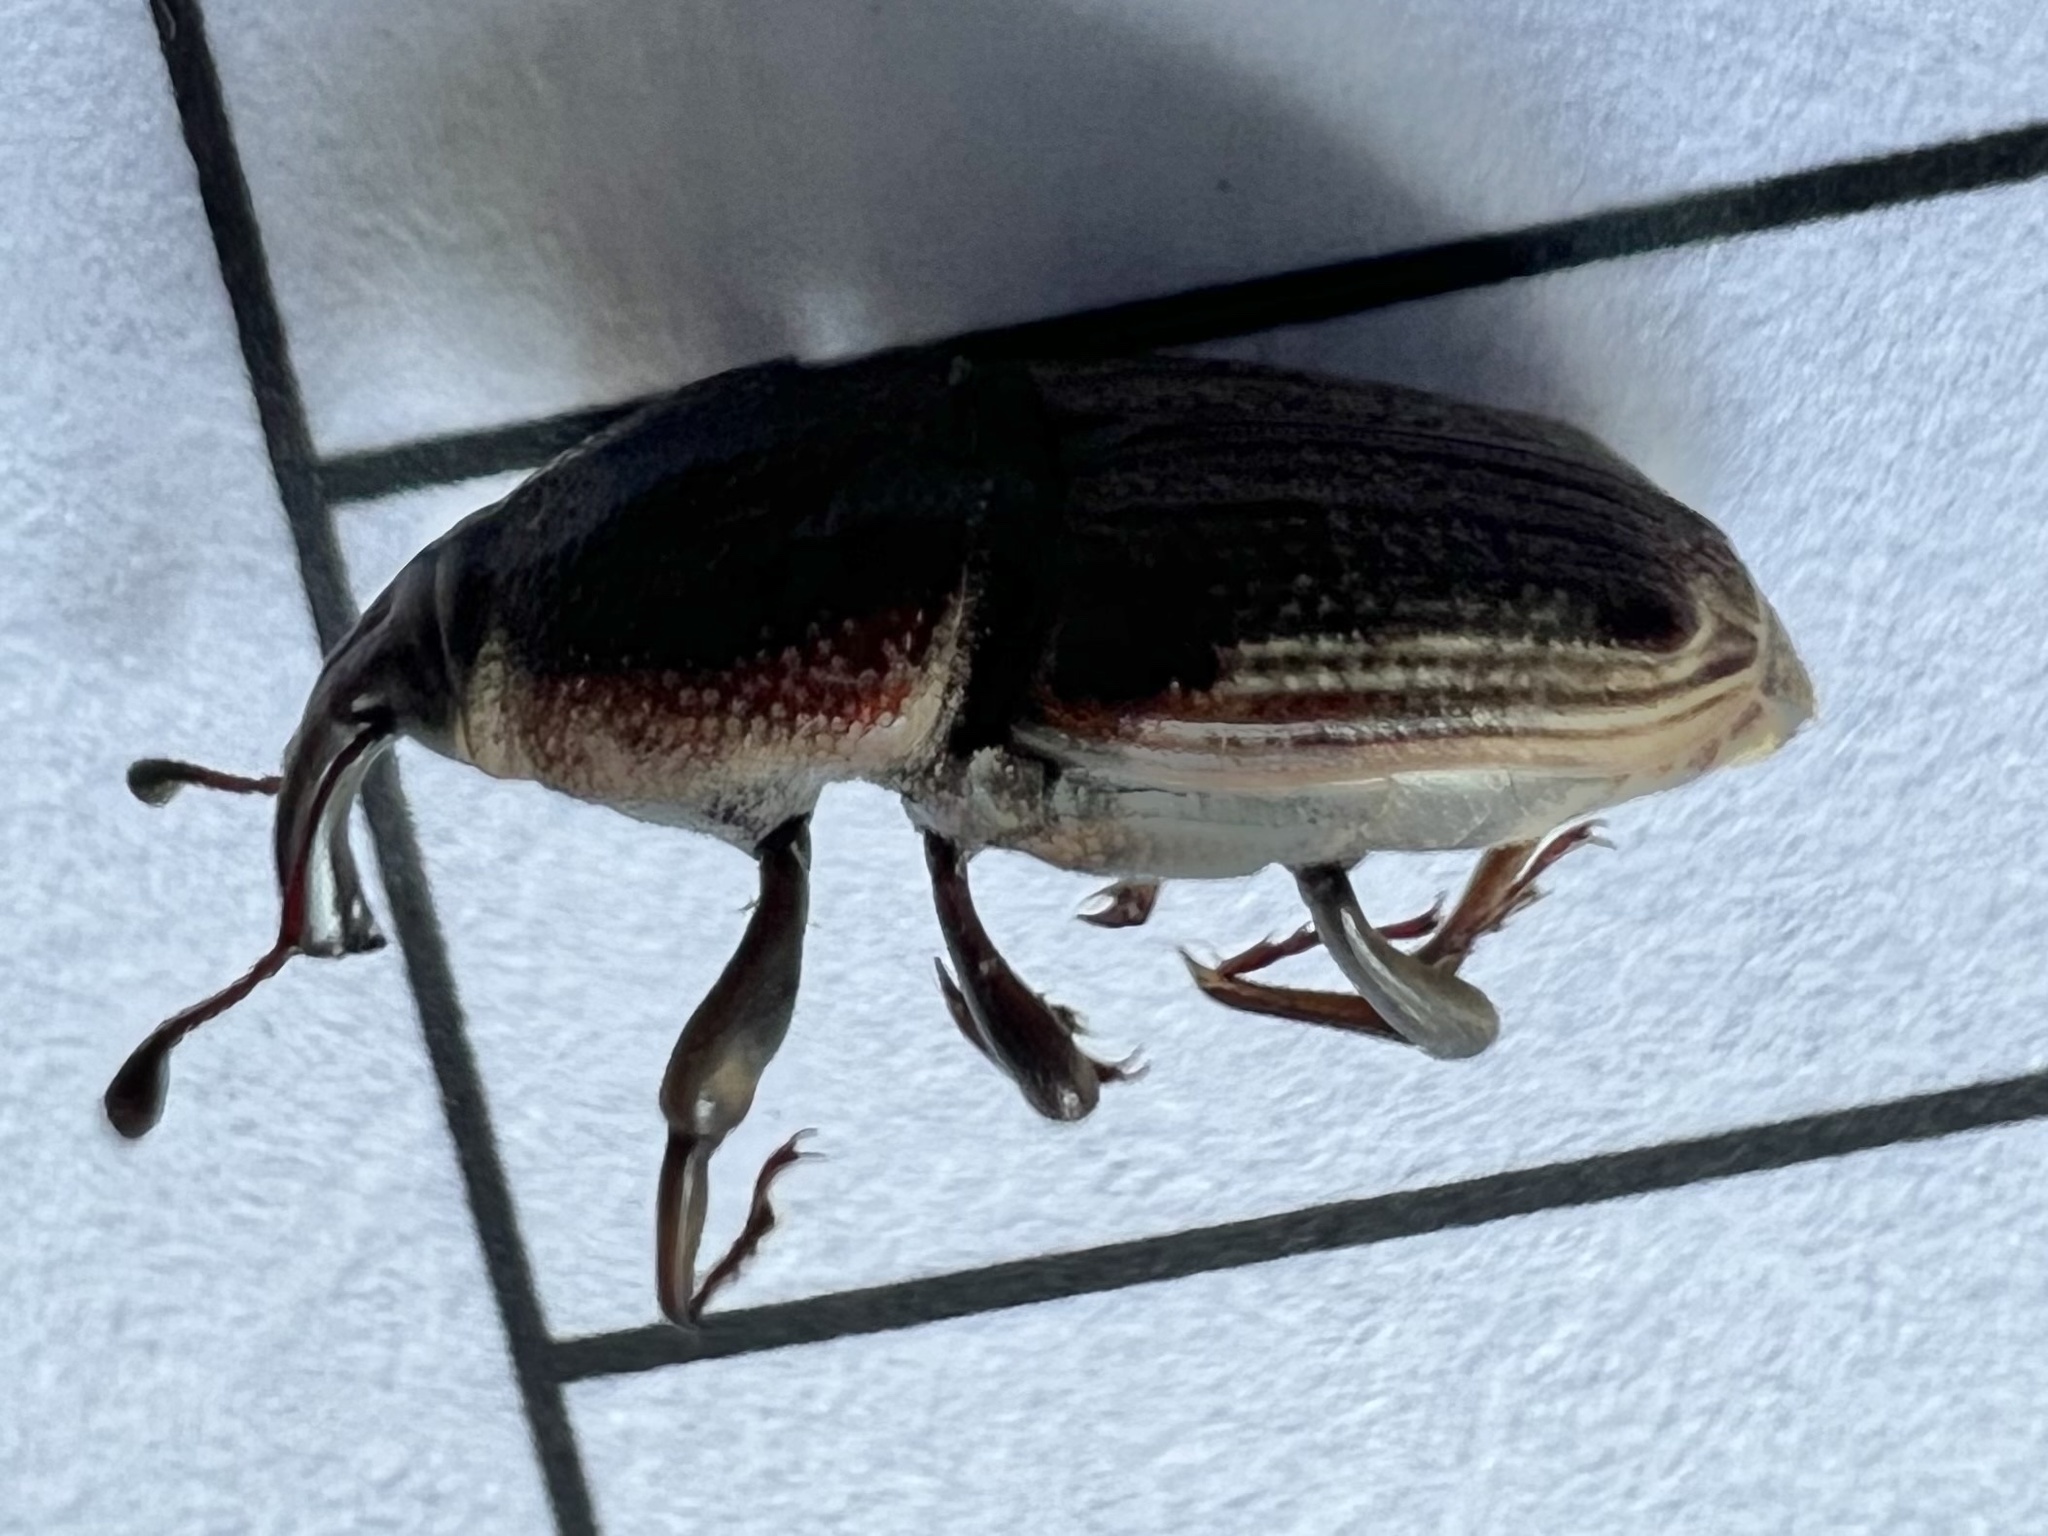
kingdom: Animalia
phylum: Arthropoda
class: Insecta
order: Coleoptera
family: Dryophthoridae
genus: Sphenophorus
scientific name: Sphenophorus venatus
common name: Hunting billbug
